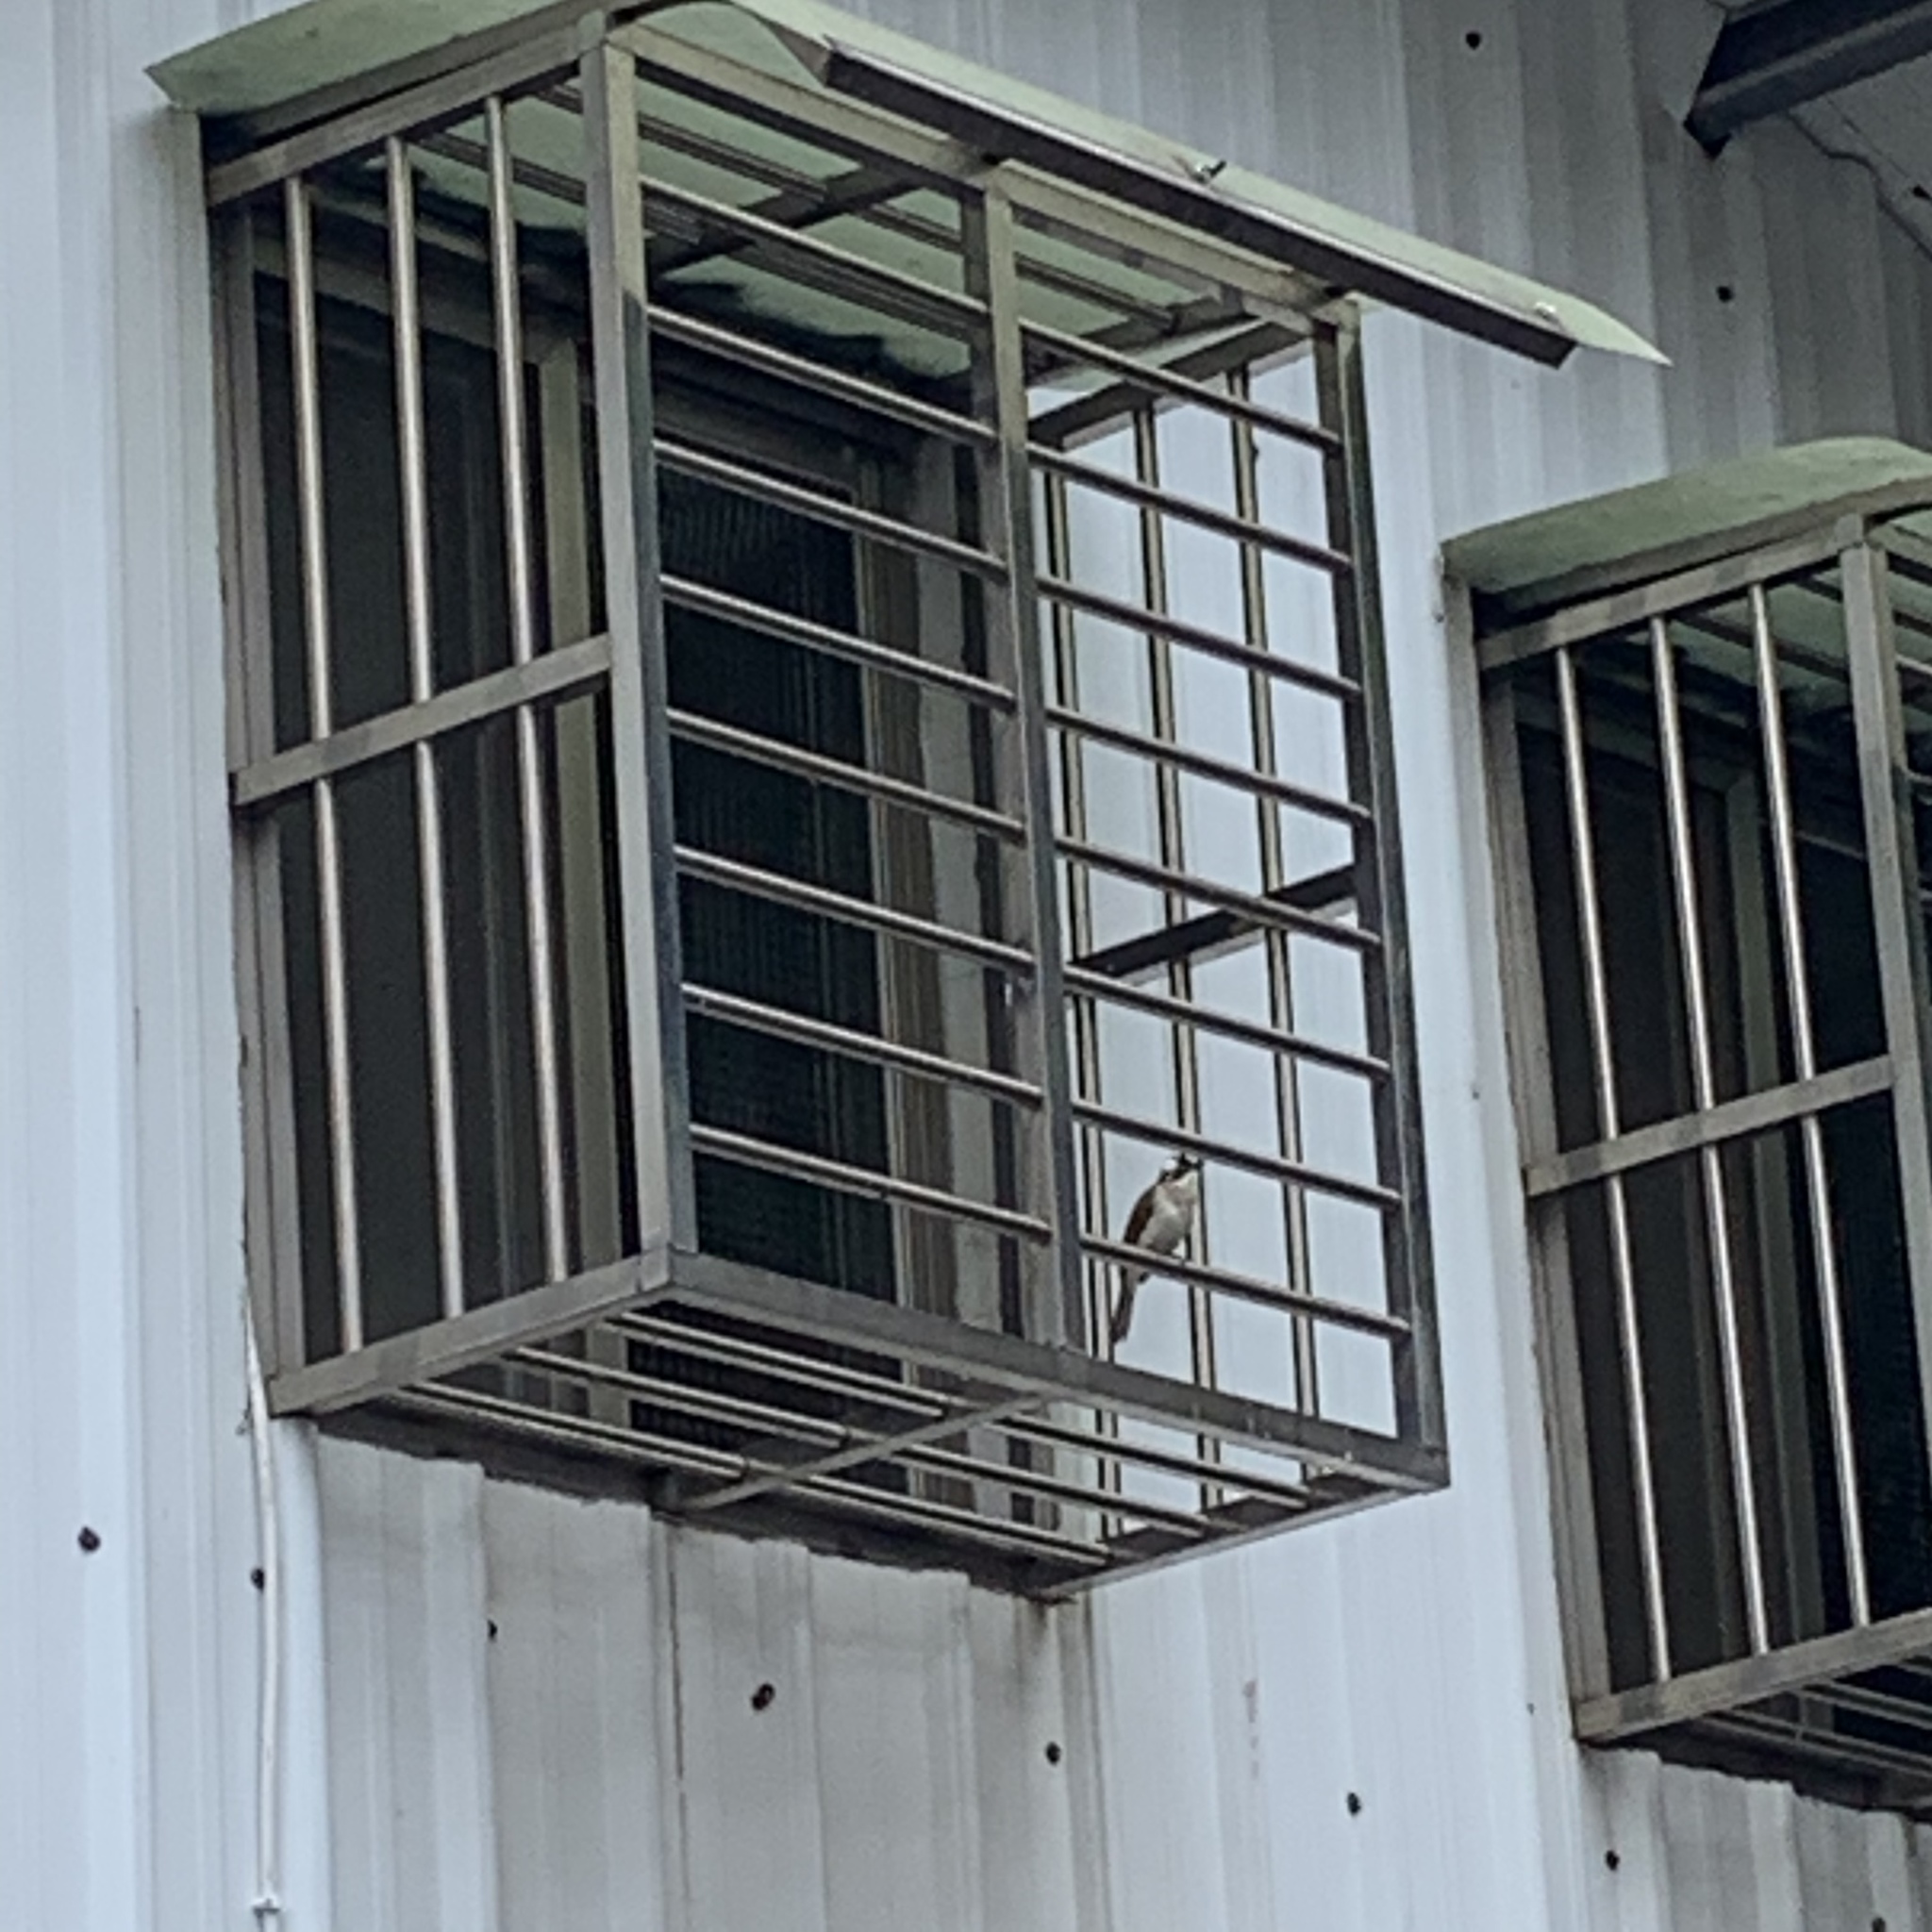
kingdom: Animalia
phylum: Chordata
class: Aves
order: Passeriformes
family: Pycnonotidae
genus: Pycnonotus
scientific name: Pycnonotus sinensis
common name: Light-vented bulbul
